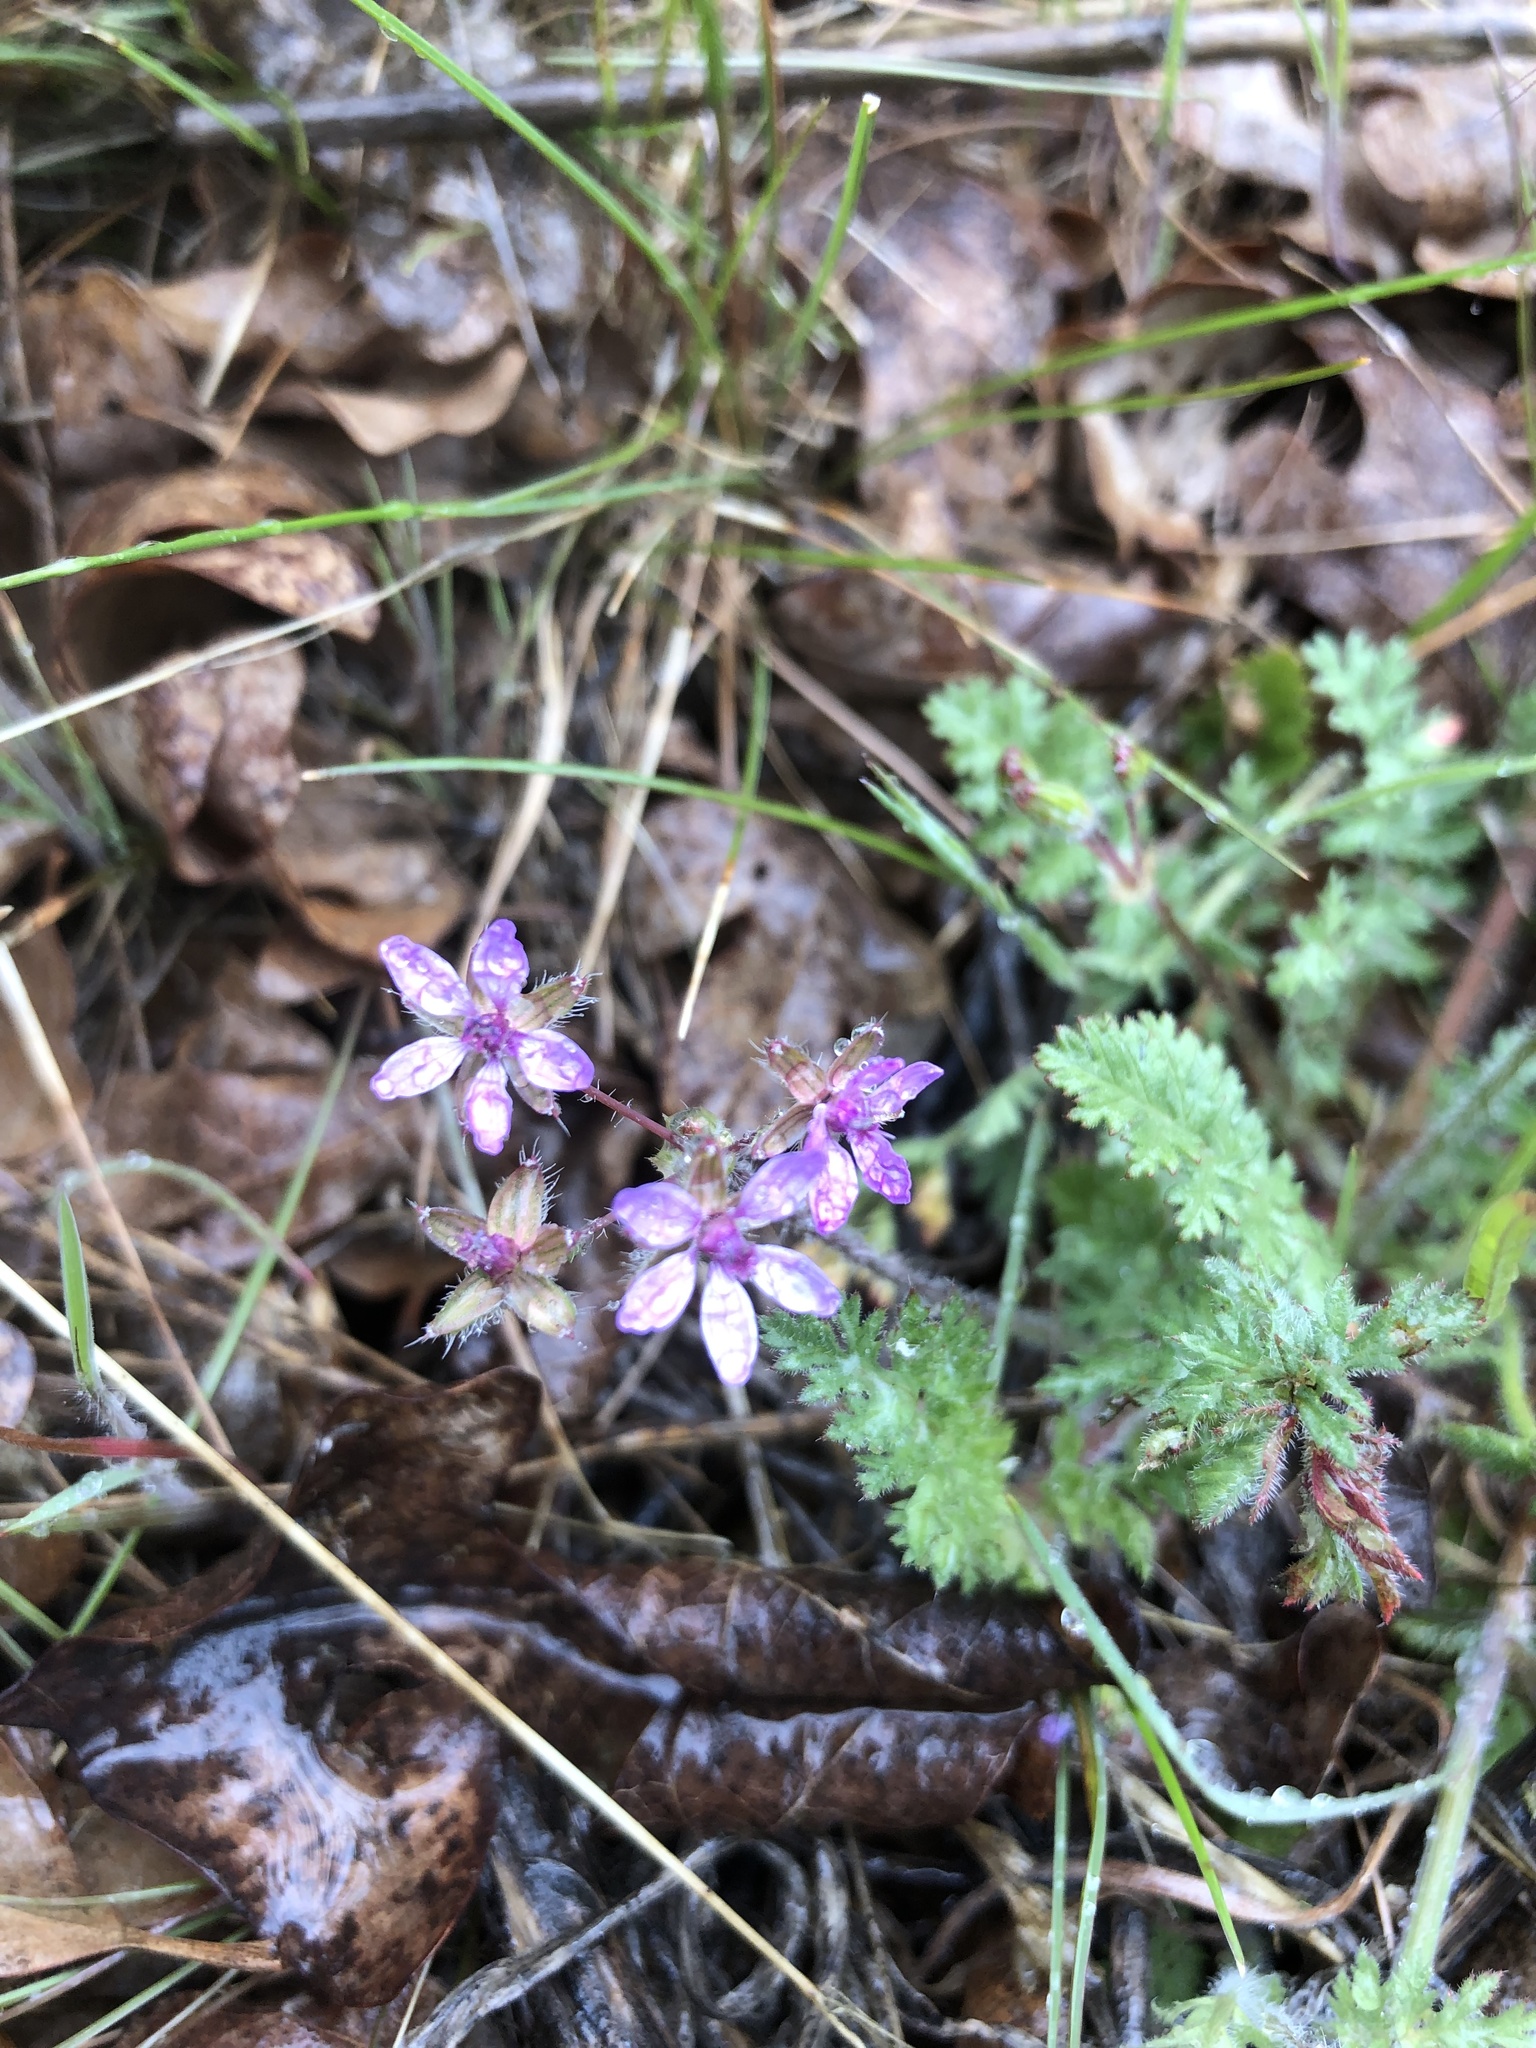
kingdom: Plantae
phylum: Tracheophyta
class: Magnoliopsida
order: Geraniales
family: Geraniaceae
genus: Erodium
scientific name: Erodium cicutarium
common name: Common stork's-bill
